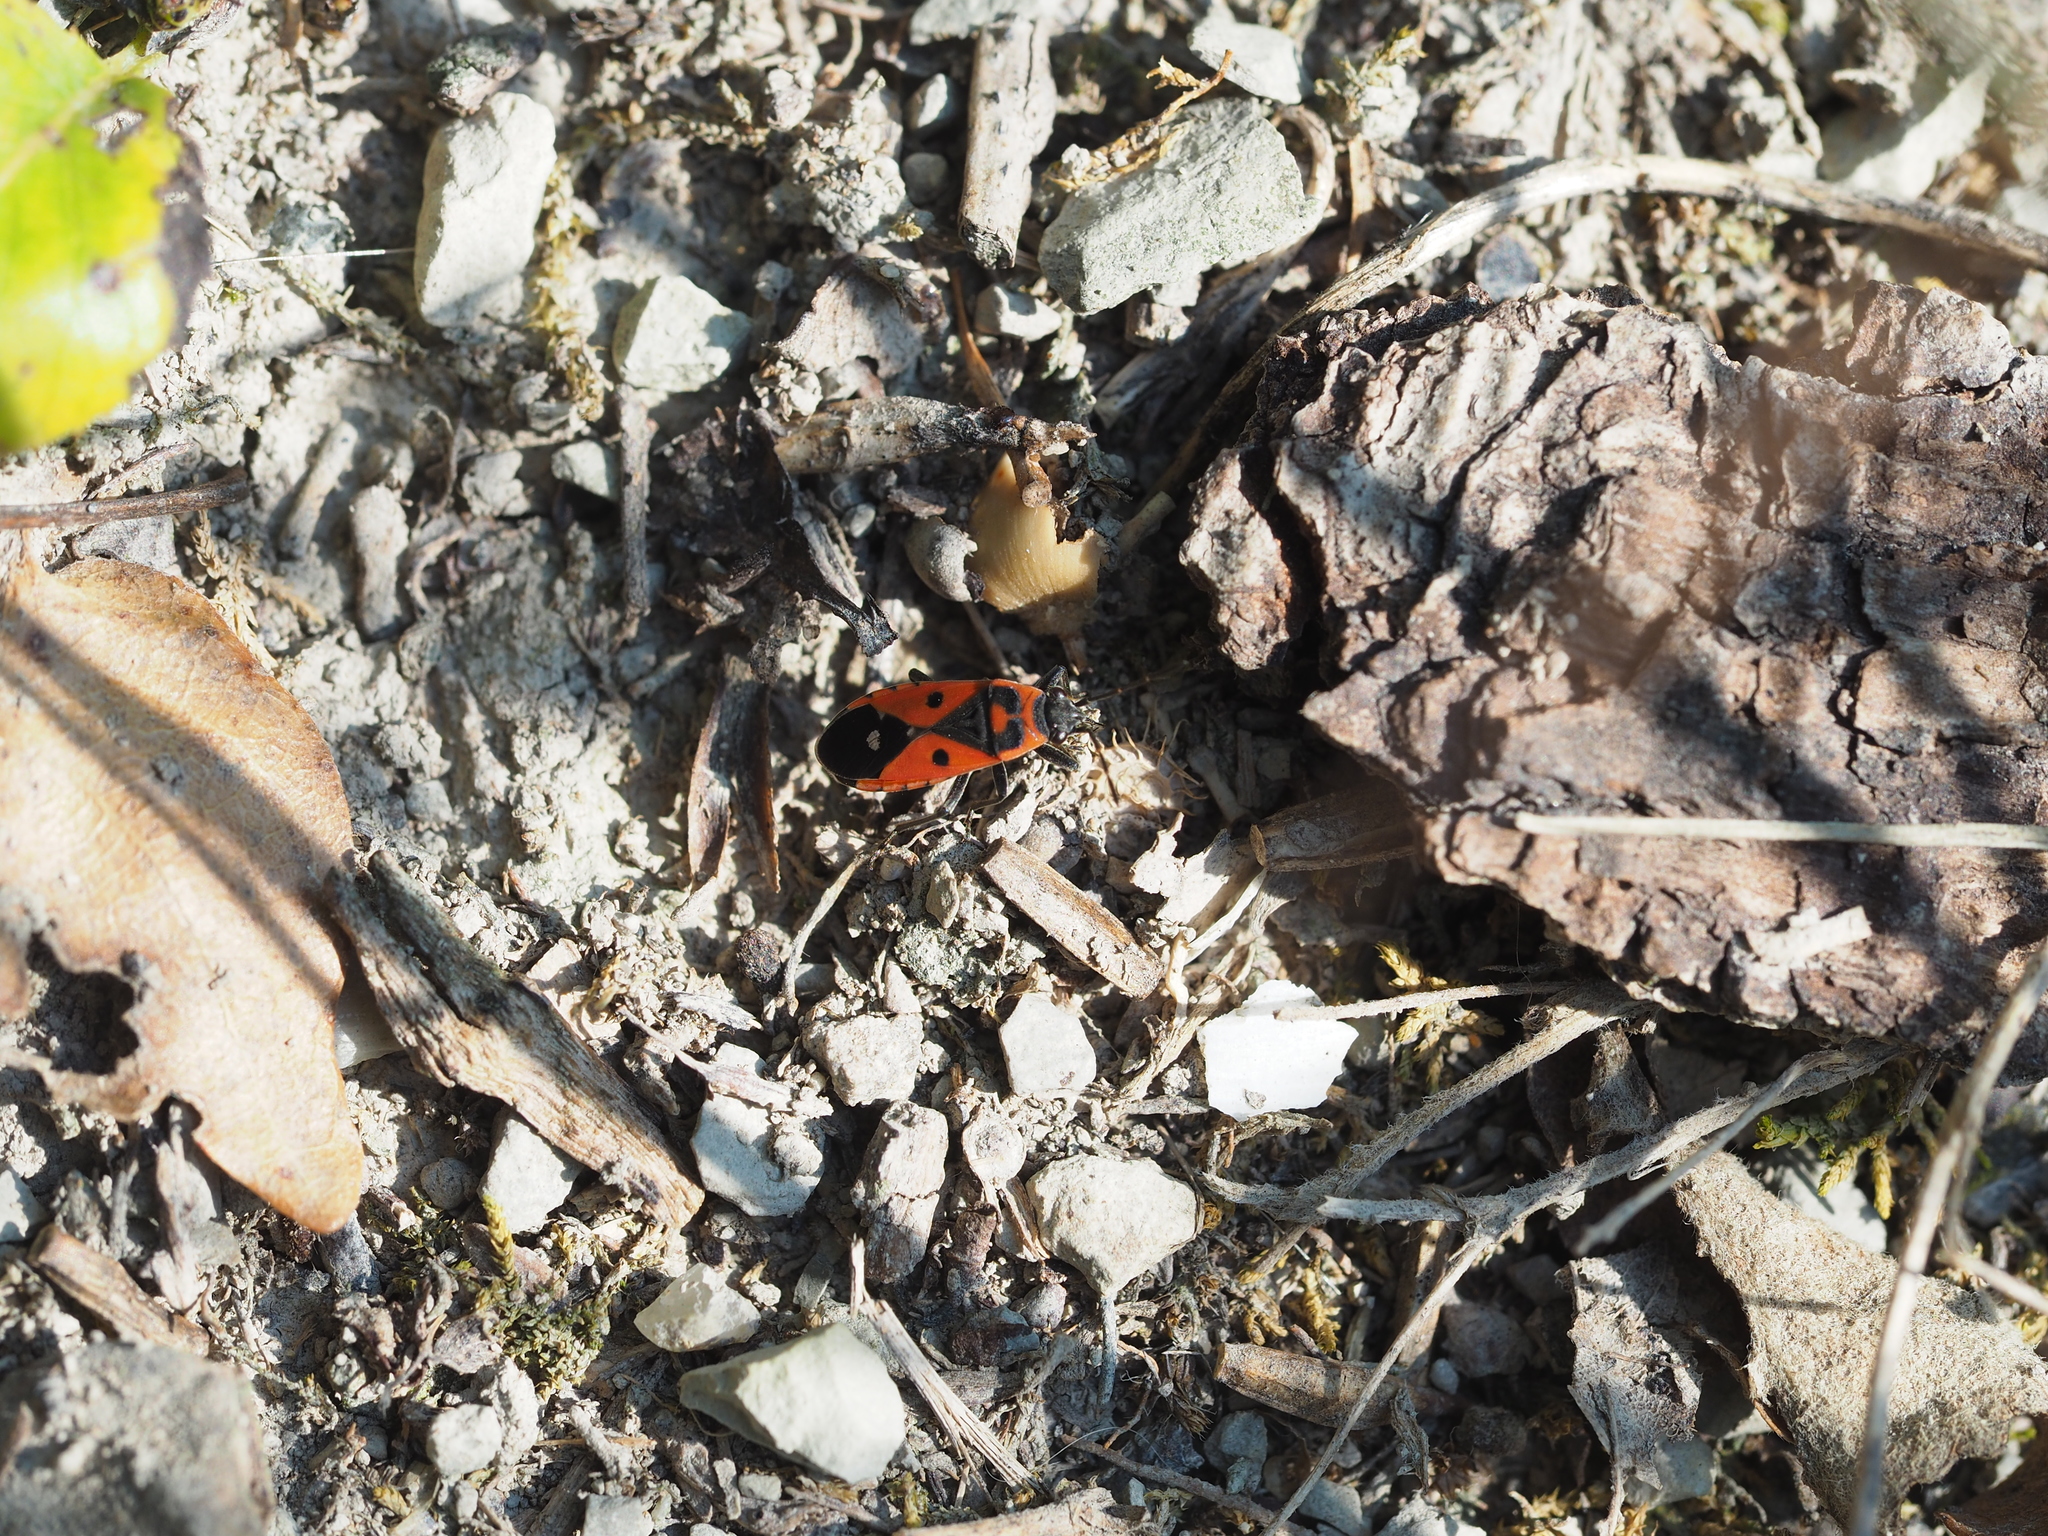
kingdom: Animalia
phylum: Arthropoda
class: Insecta
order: Hemiptera
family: Lygaeidae
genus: Melanocoryphus
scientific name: Melanocoryphus albomaculatus
